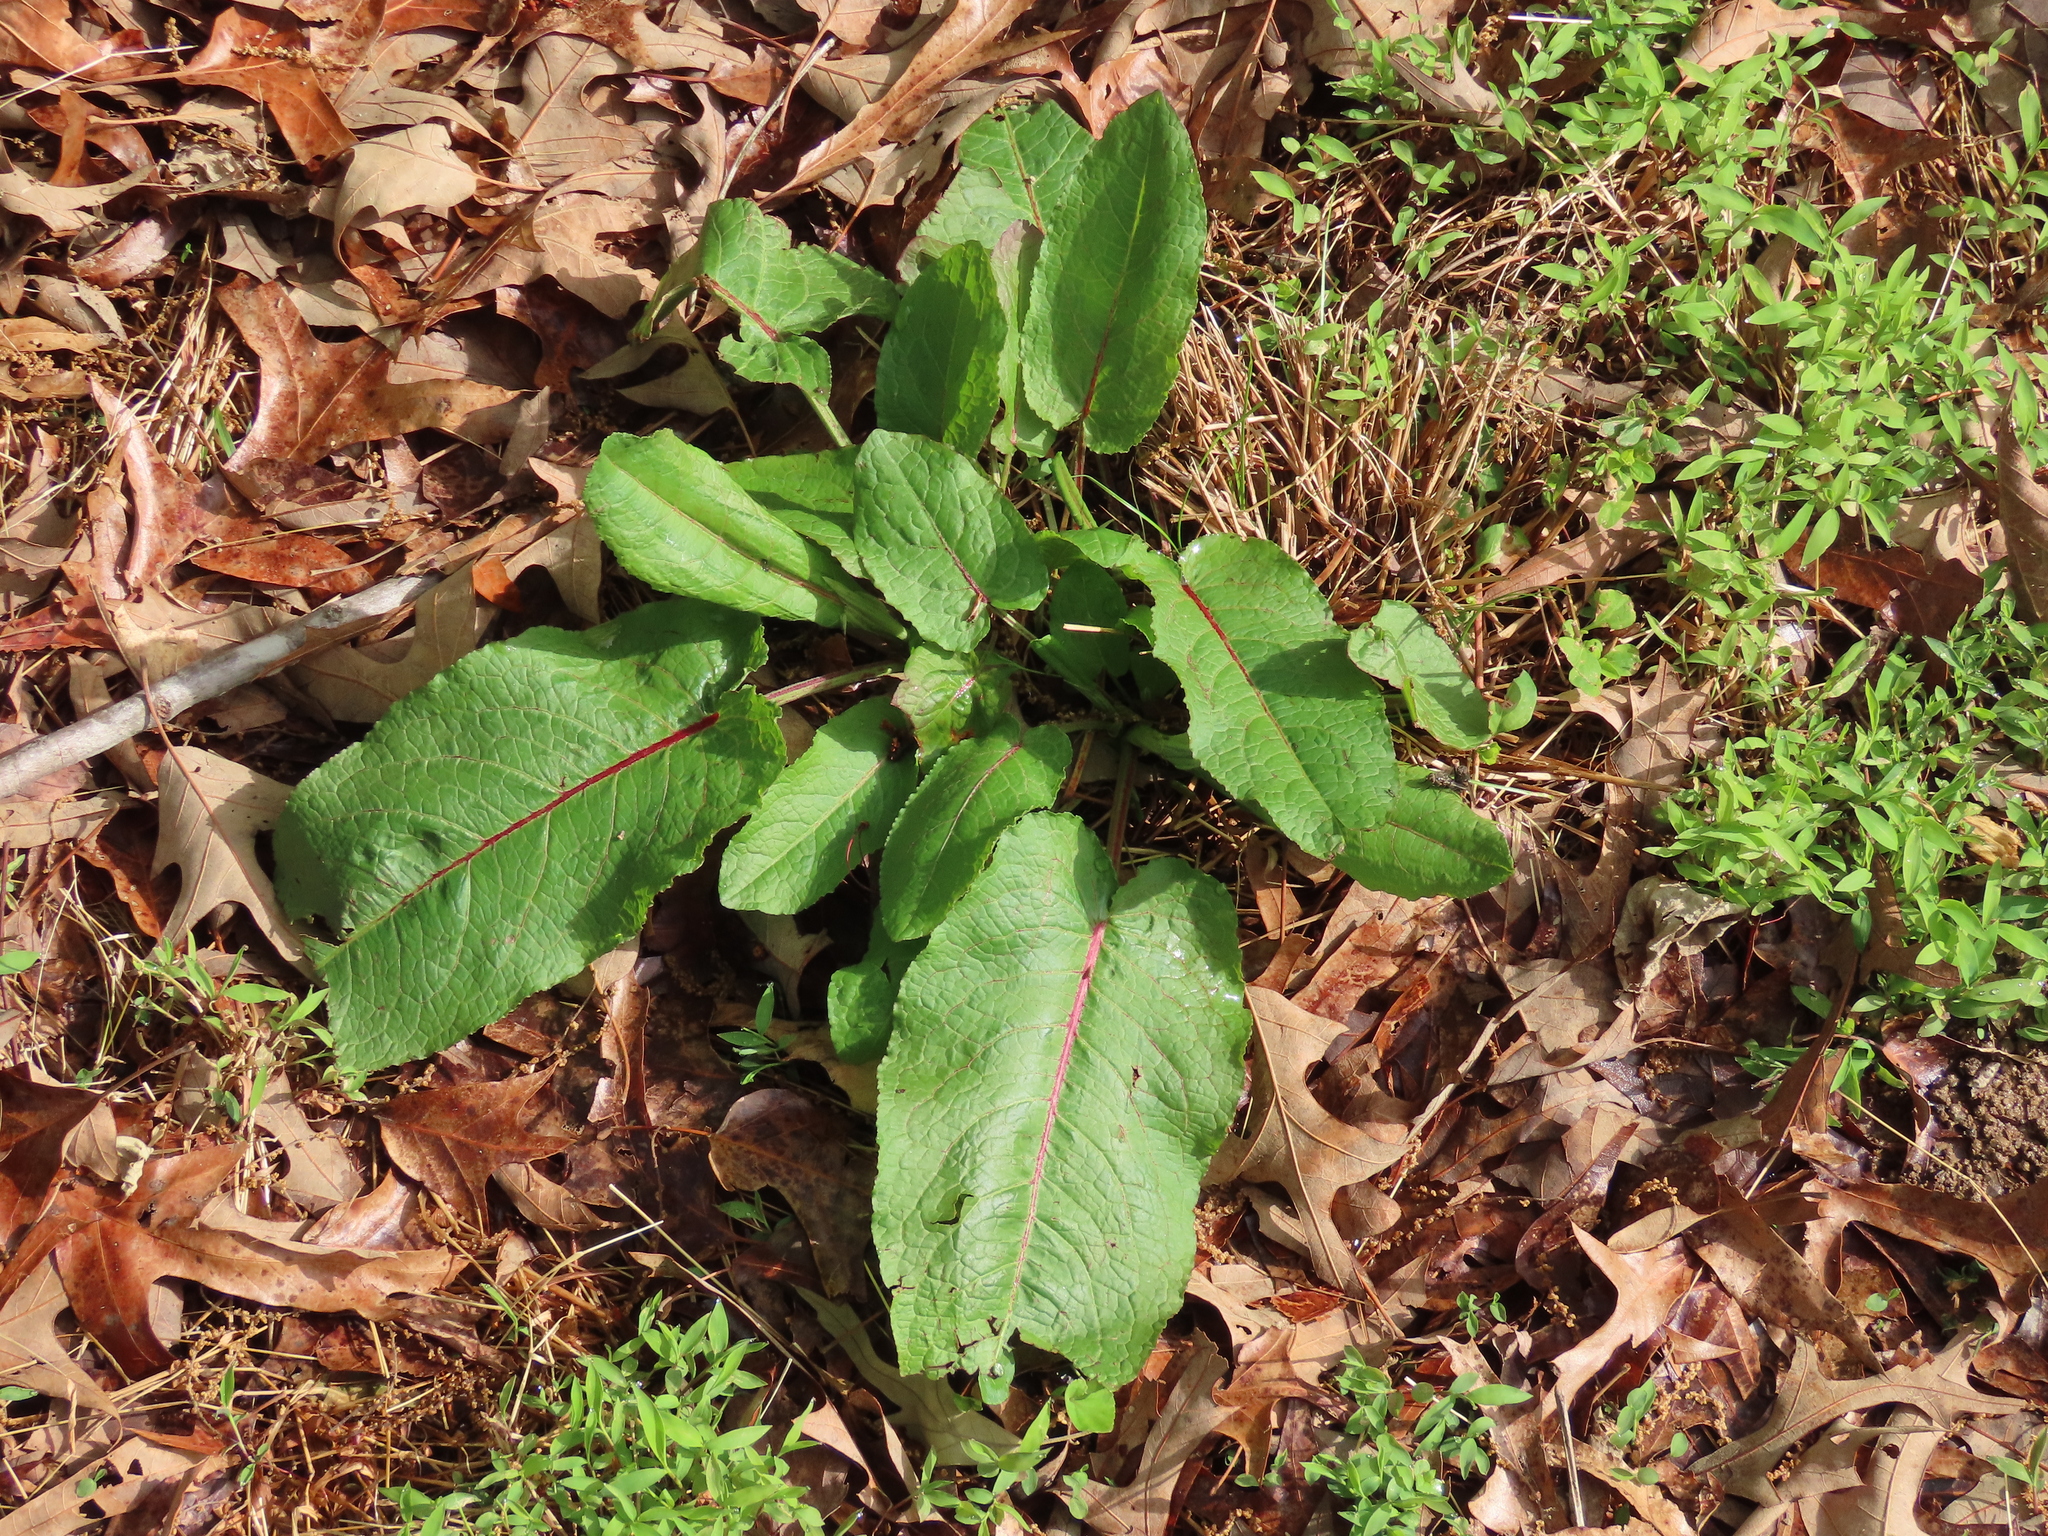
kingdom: Plantae
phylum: Tracheophyta
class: Magnoliopsida
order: Caryophyllales
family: Polygonaceae
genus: Rumex
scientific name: Rumex obtusifolius
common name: Bitter dock
